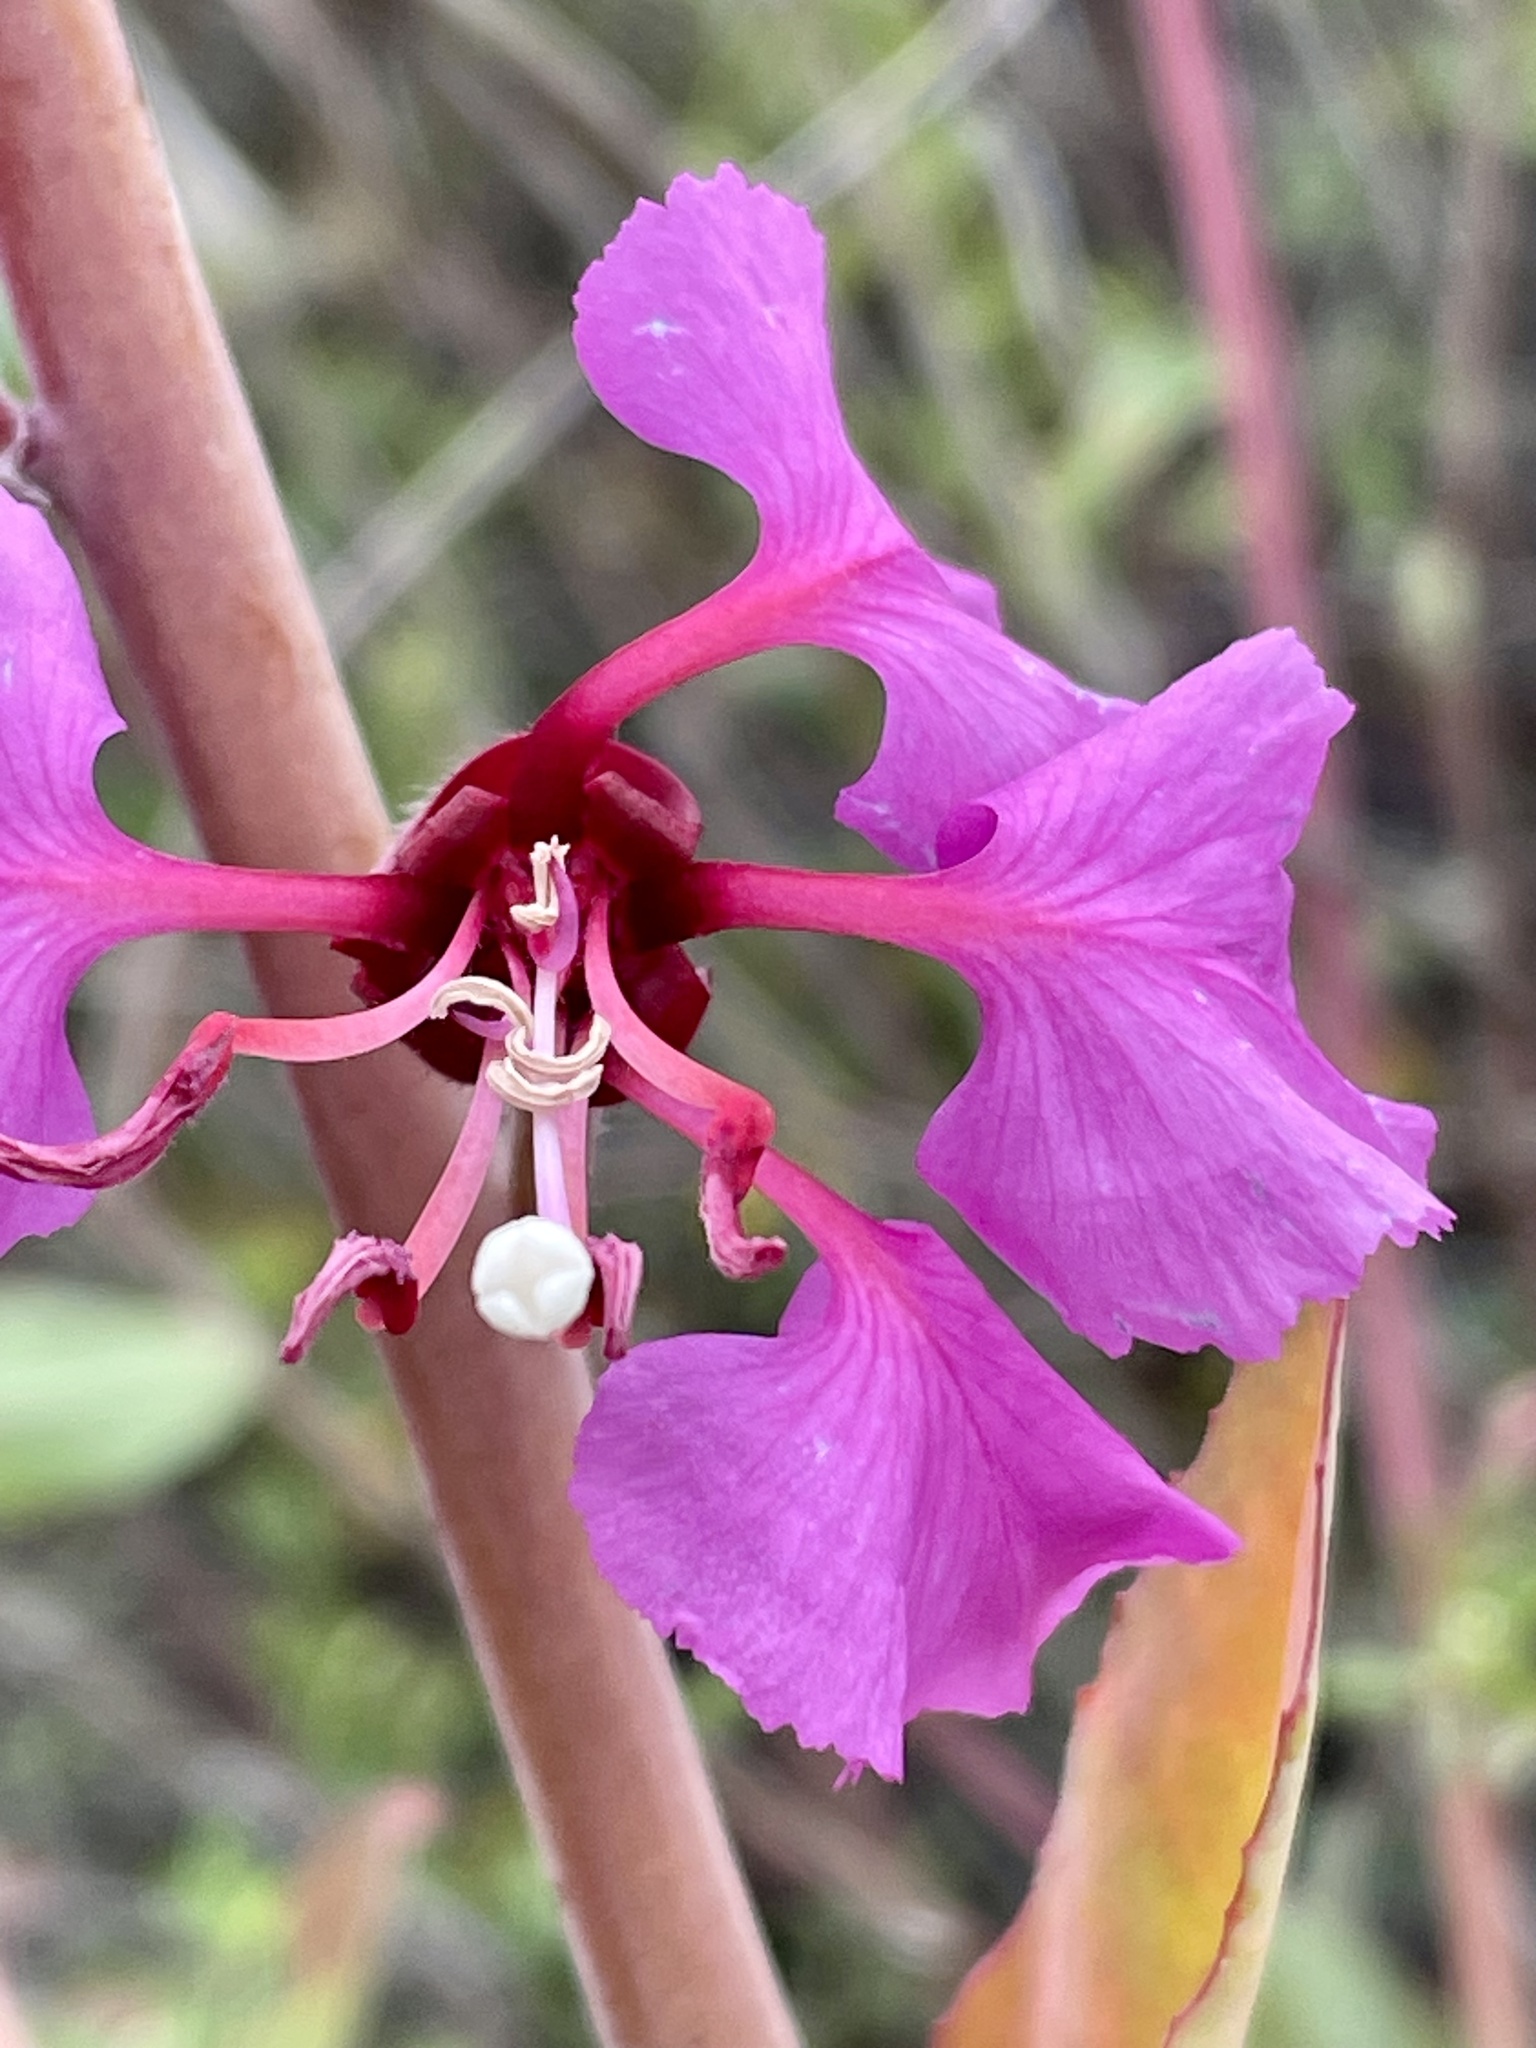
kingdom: Plantae
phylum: Tracheophyta
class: Magnoliopsida
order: Myrtales
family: Onagraceae
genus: Clarkia
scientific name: Clarkia unguiculata
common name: Clarkia
